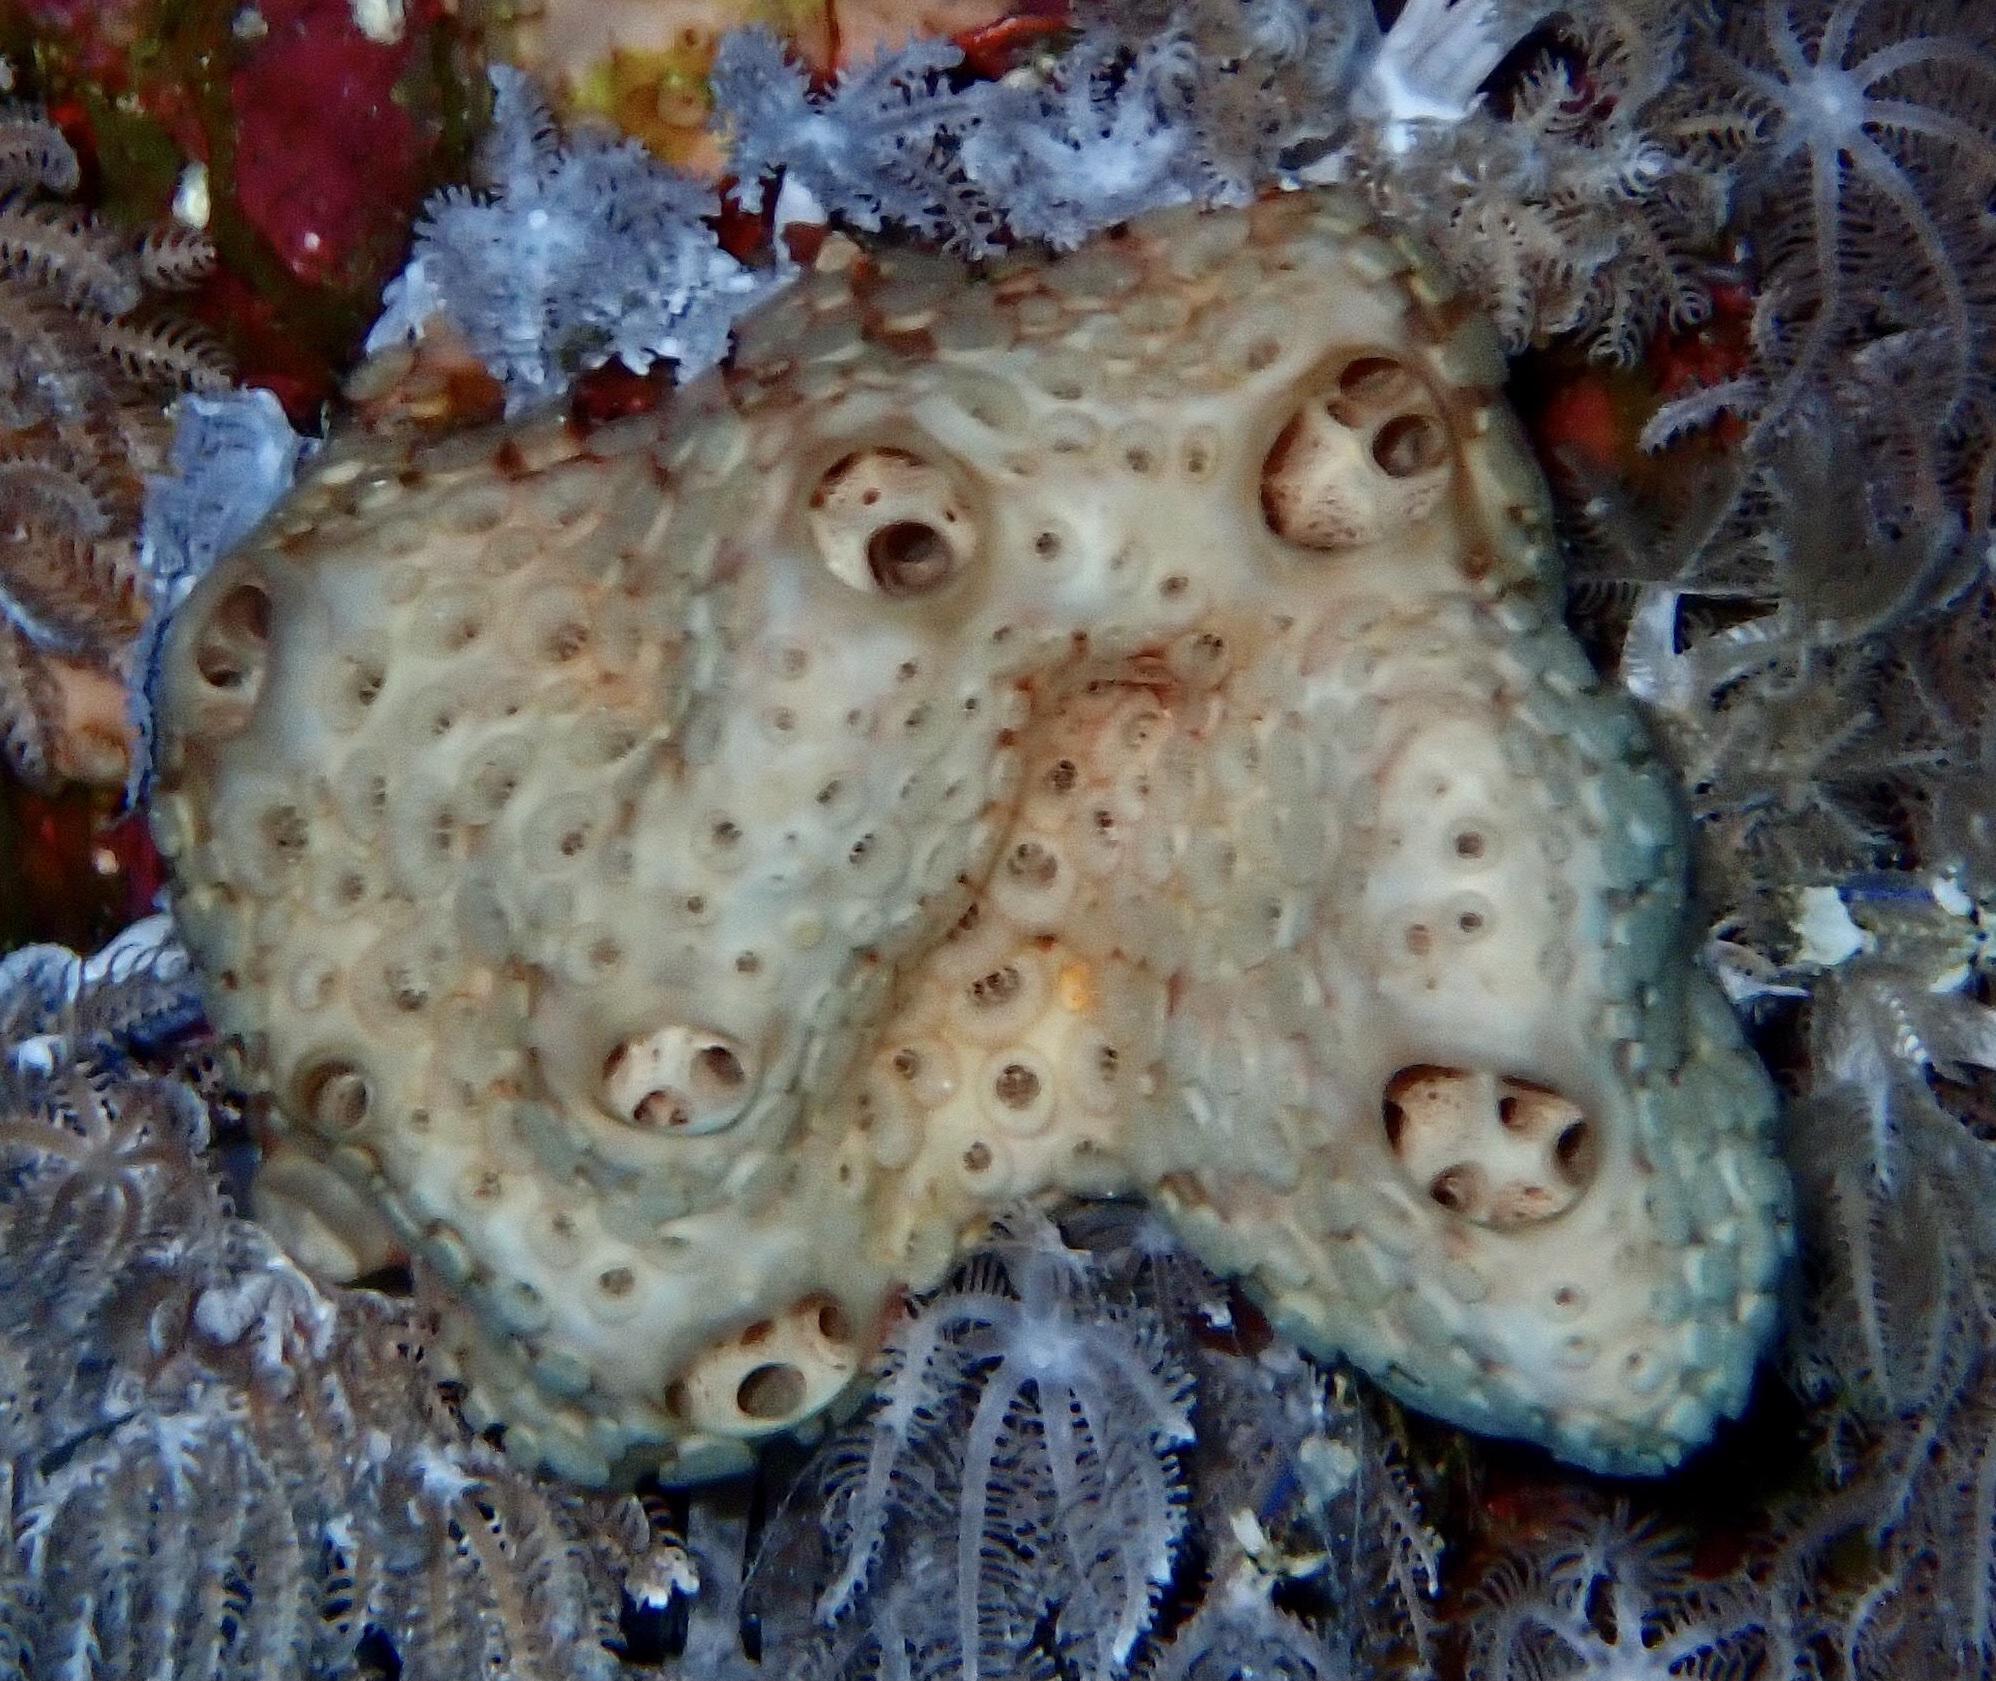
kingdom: Animalia
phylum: Porifera
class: Demospongiae
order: Poecilosclerida
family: Crellidae
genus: Crella
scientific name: Crella cyathophora
